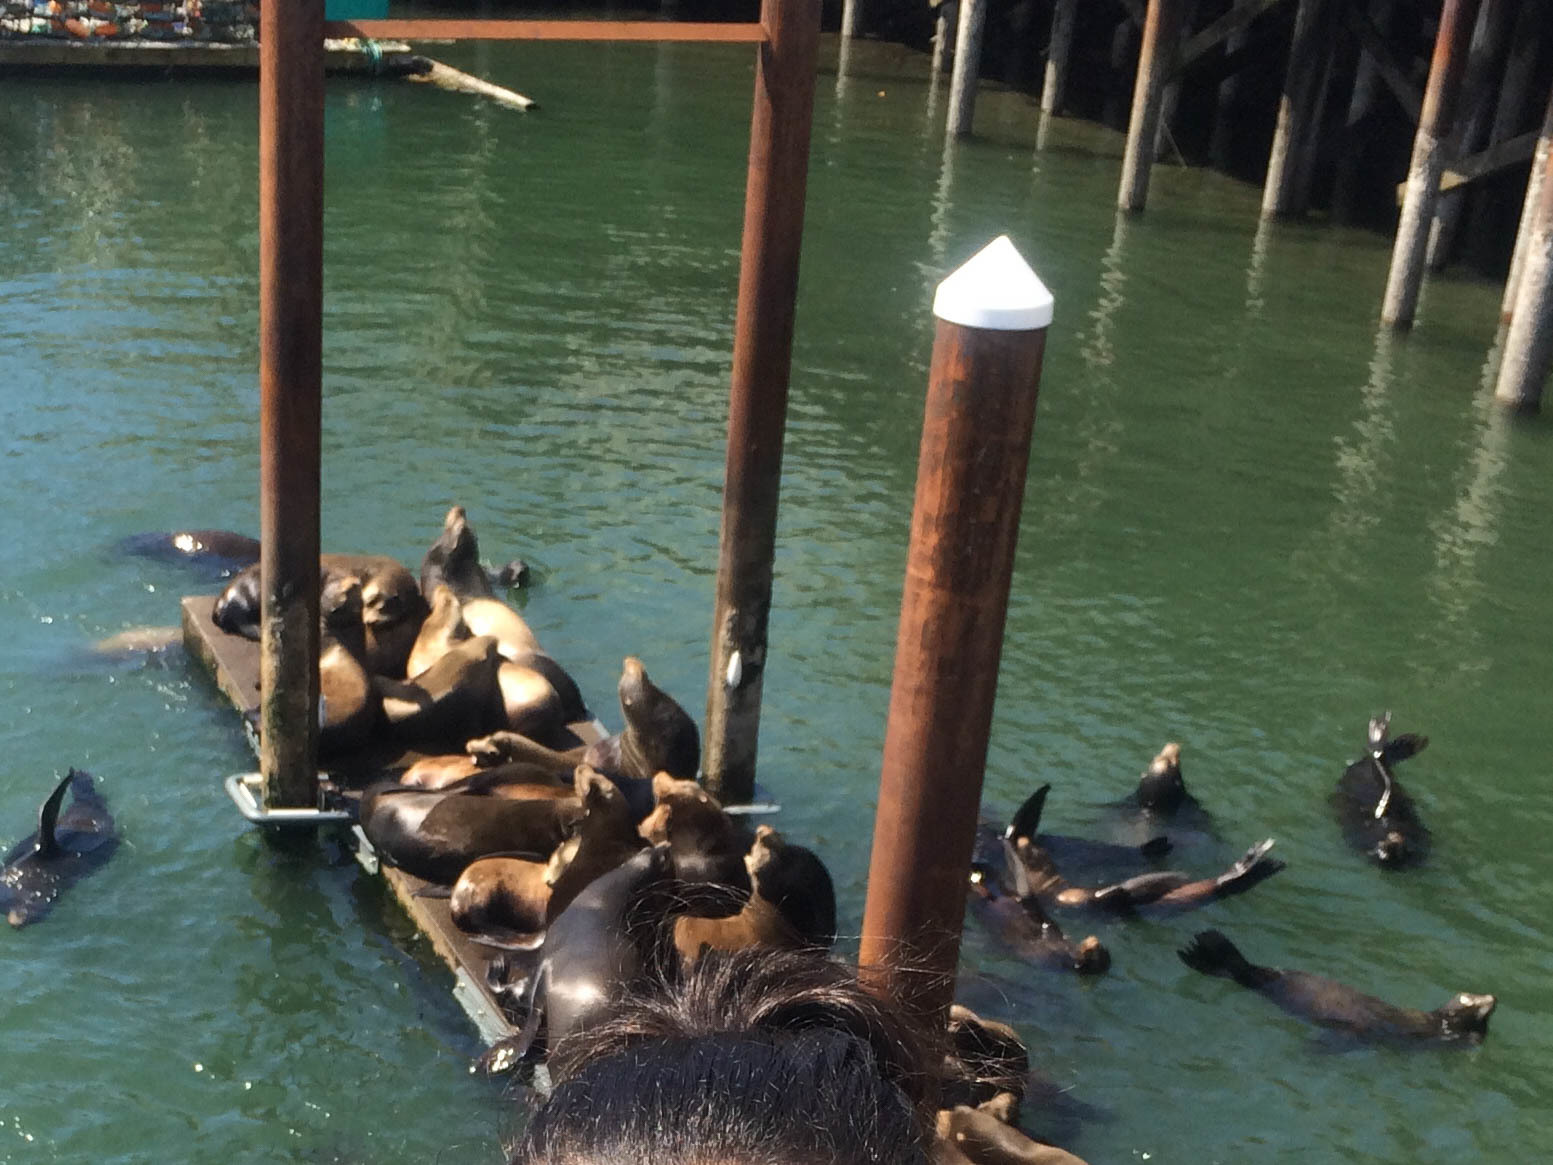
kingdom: Animalia
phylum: Chordata
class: Mammalia
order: Carnivora
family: Otariidae
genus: Zalophus
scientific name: Zalophus californianus
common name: California sea lion
